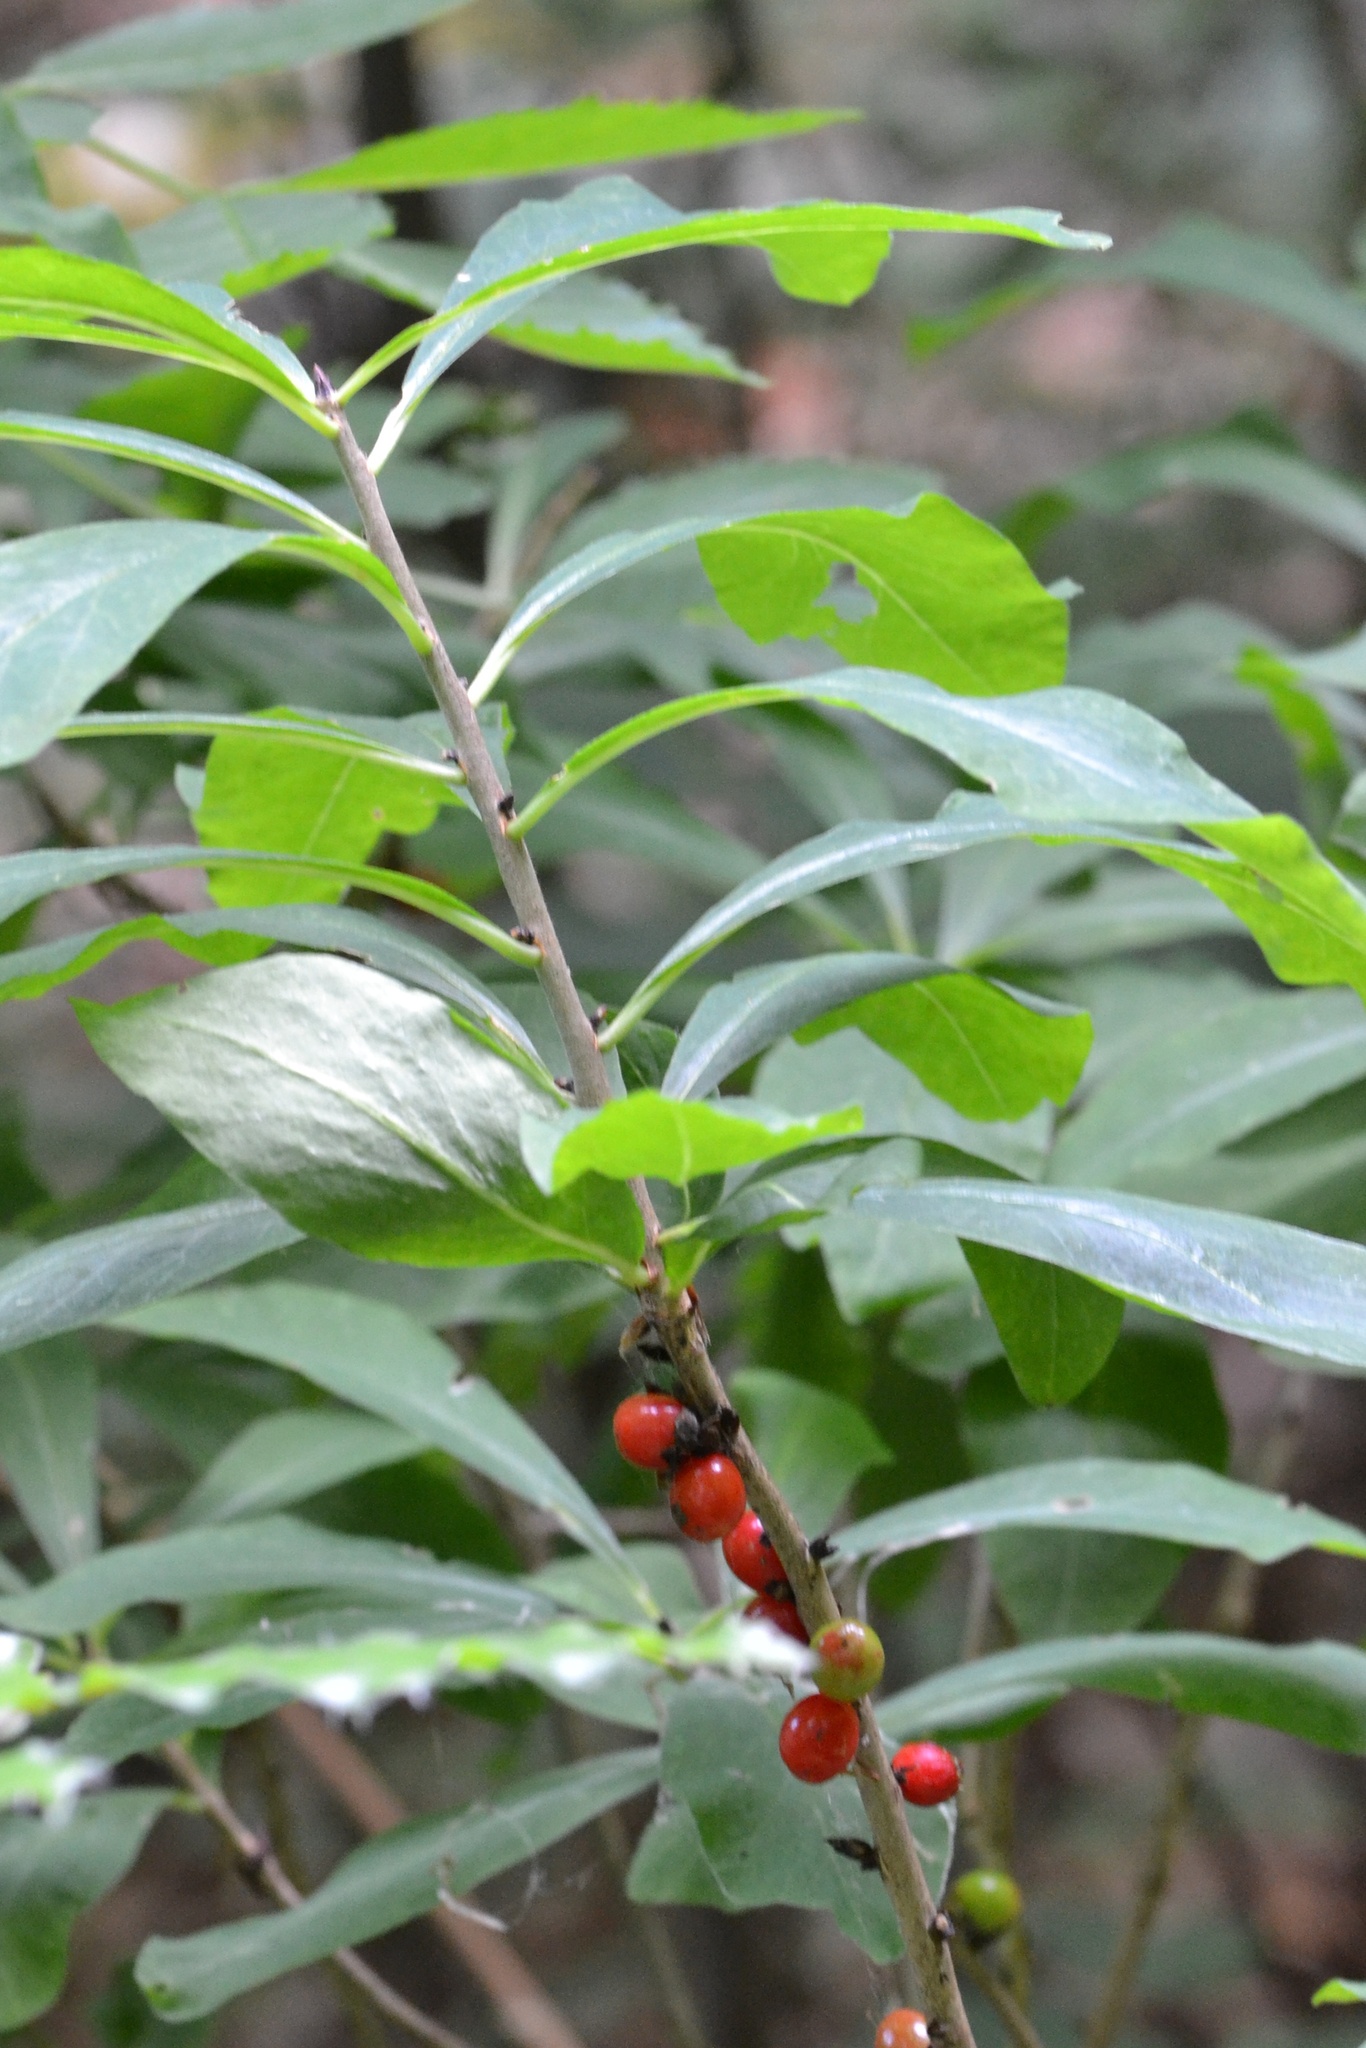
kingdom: Plantae
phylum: Tracheophyta
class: Magnoliopsida
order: Malvales
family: Thymelaeaceae
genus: Daphne
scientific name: Daphne mezereum
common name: Mezereon
